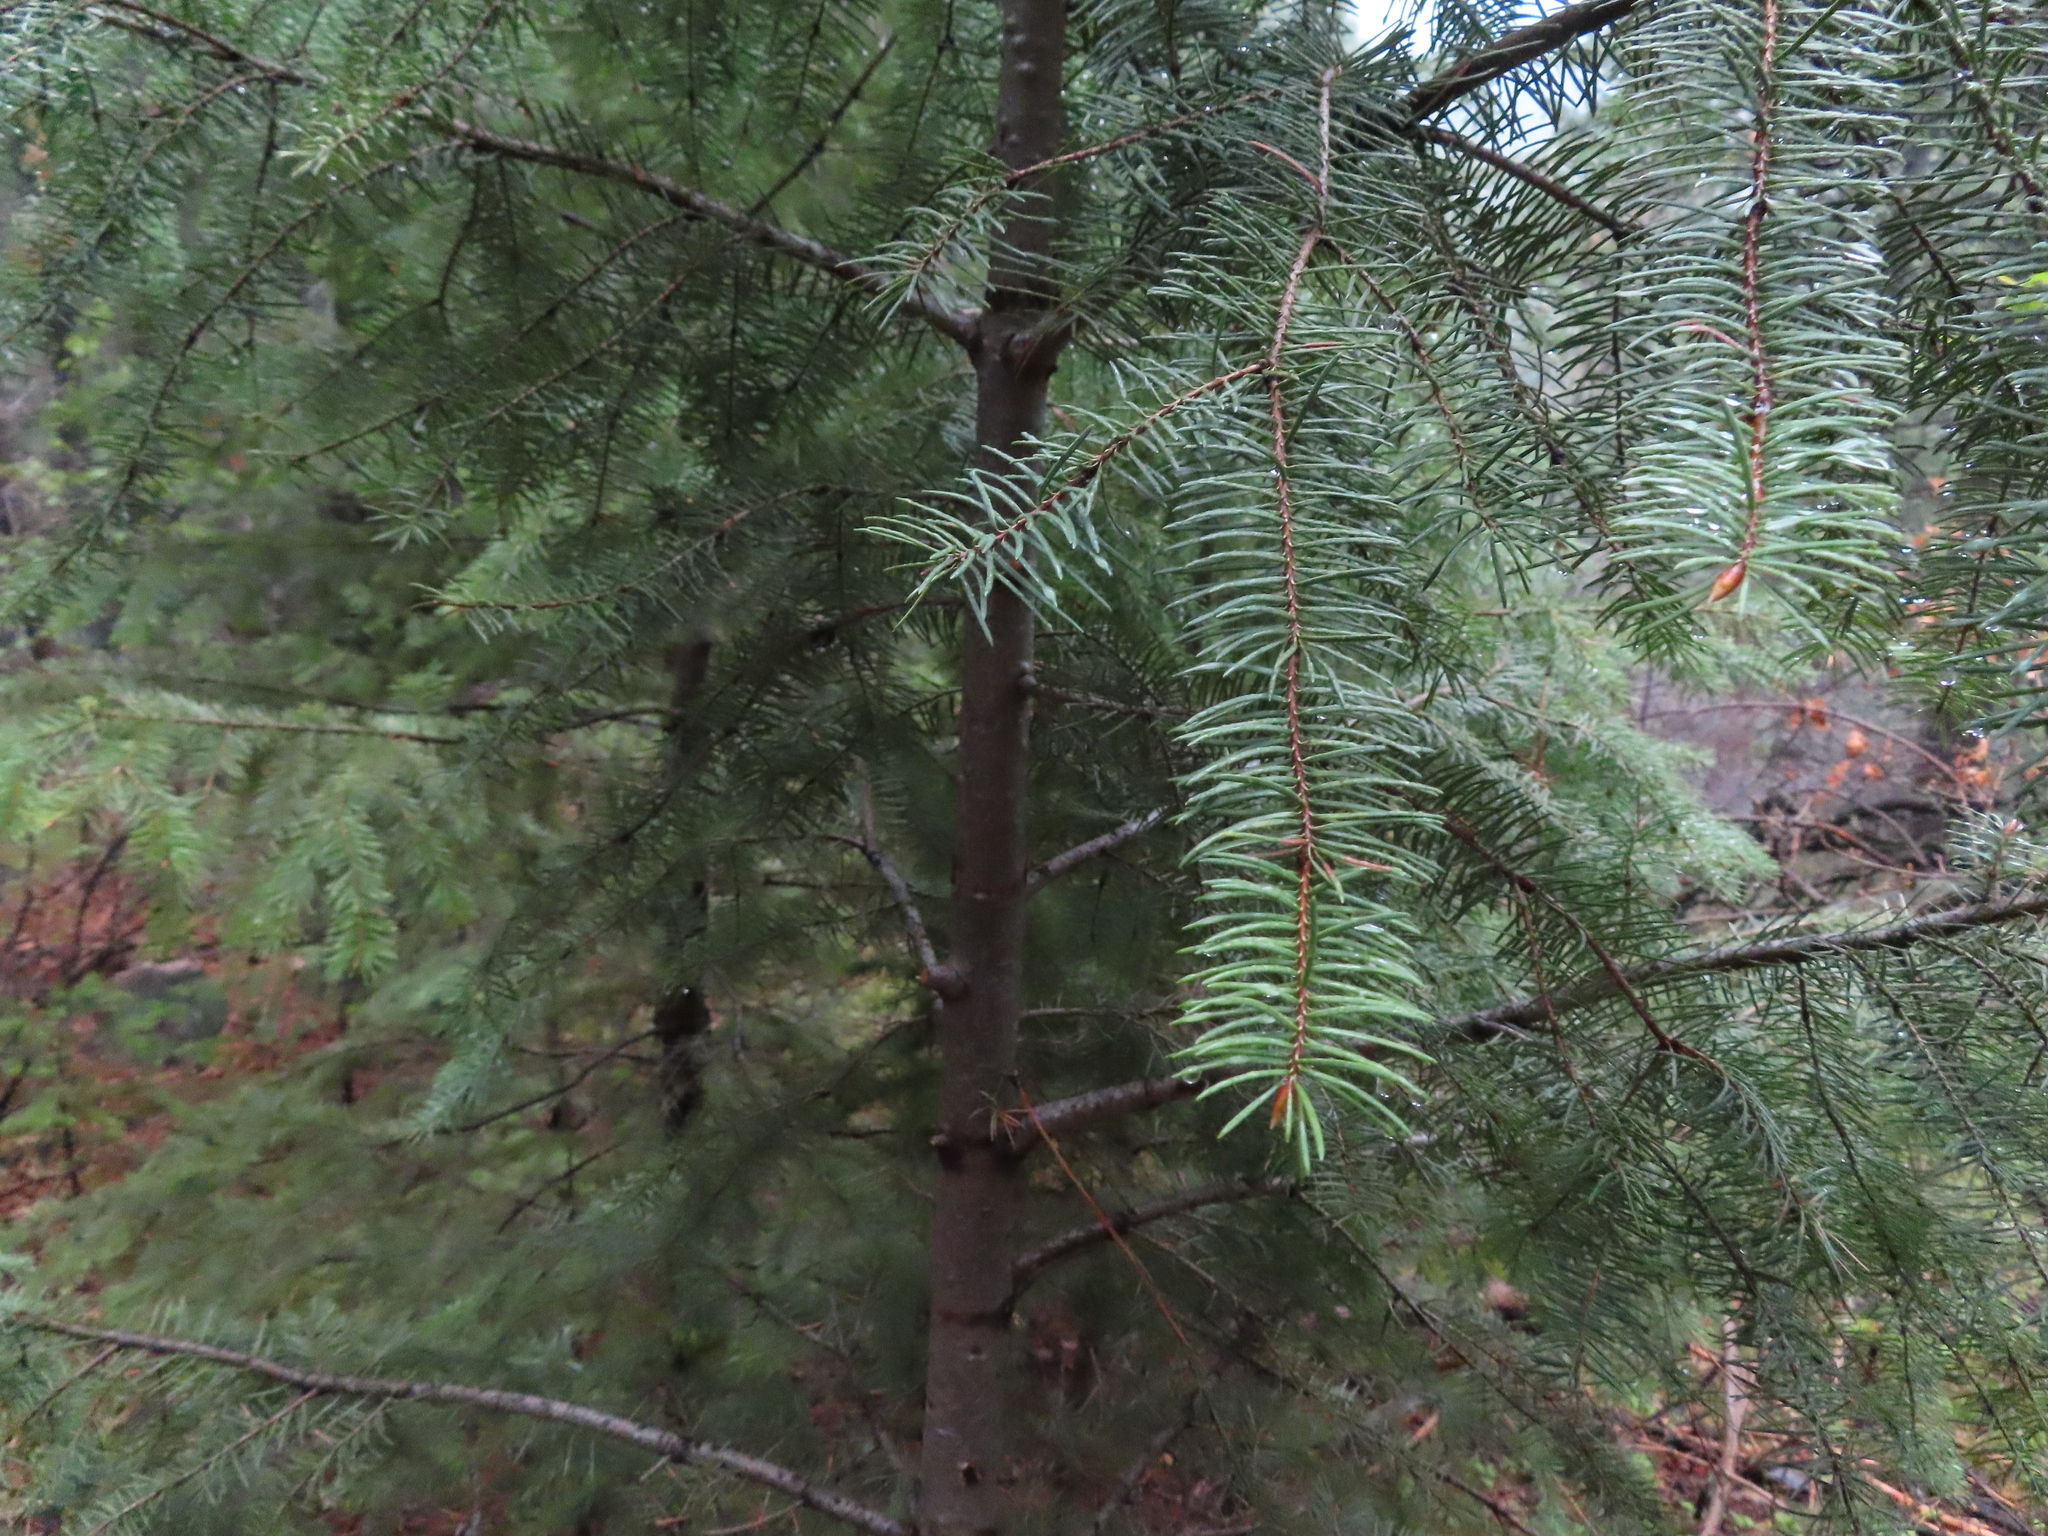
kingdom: Plantae
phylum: Tracheophyta
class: Pinopsida
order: Pinales
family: Pinaceae
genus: Pseudotsuga
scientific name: Pseudotsuga menziesii
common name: Douglas fir
